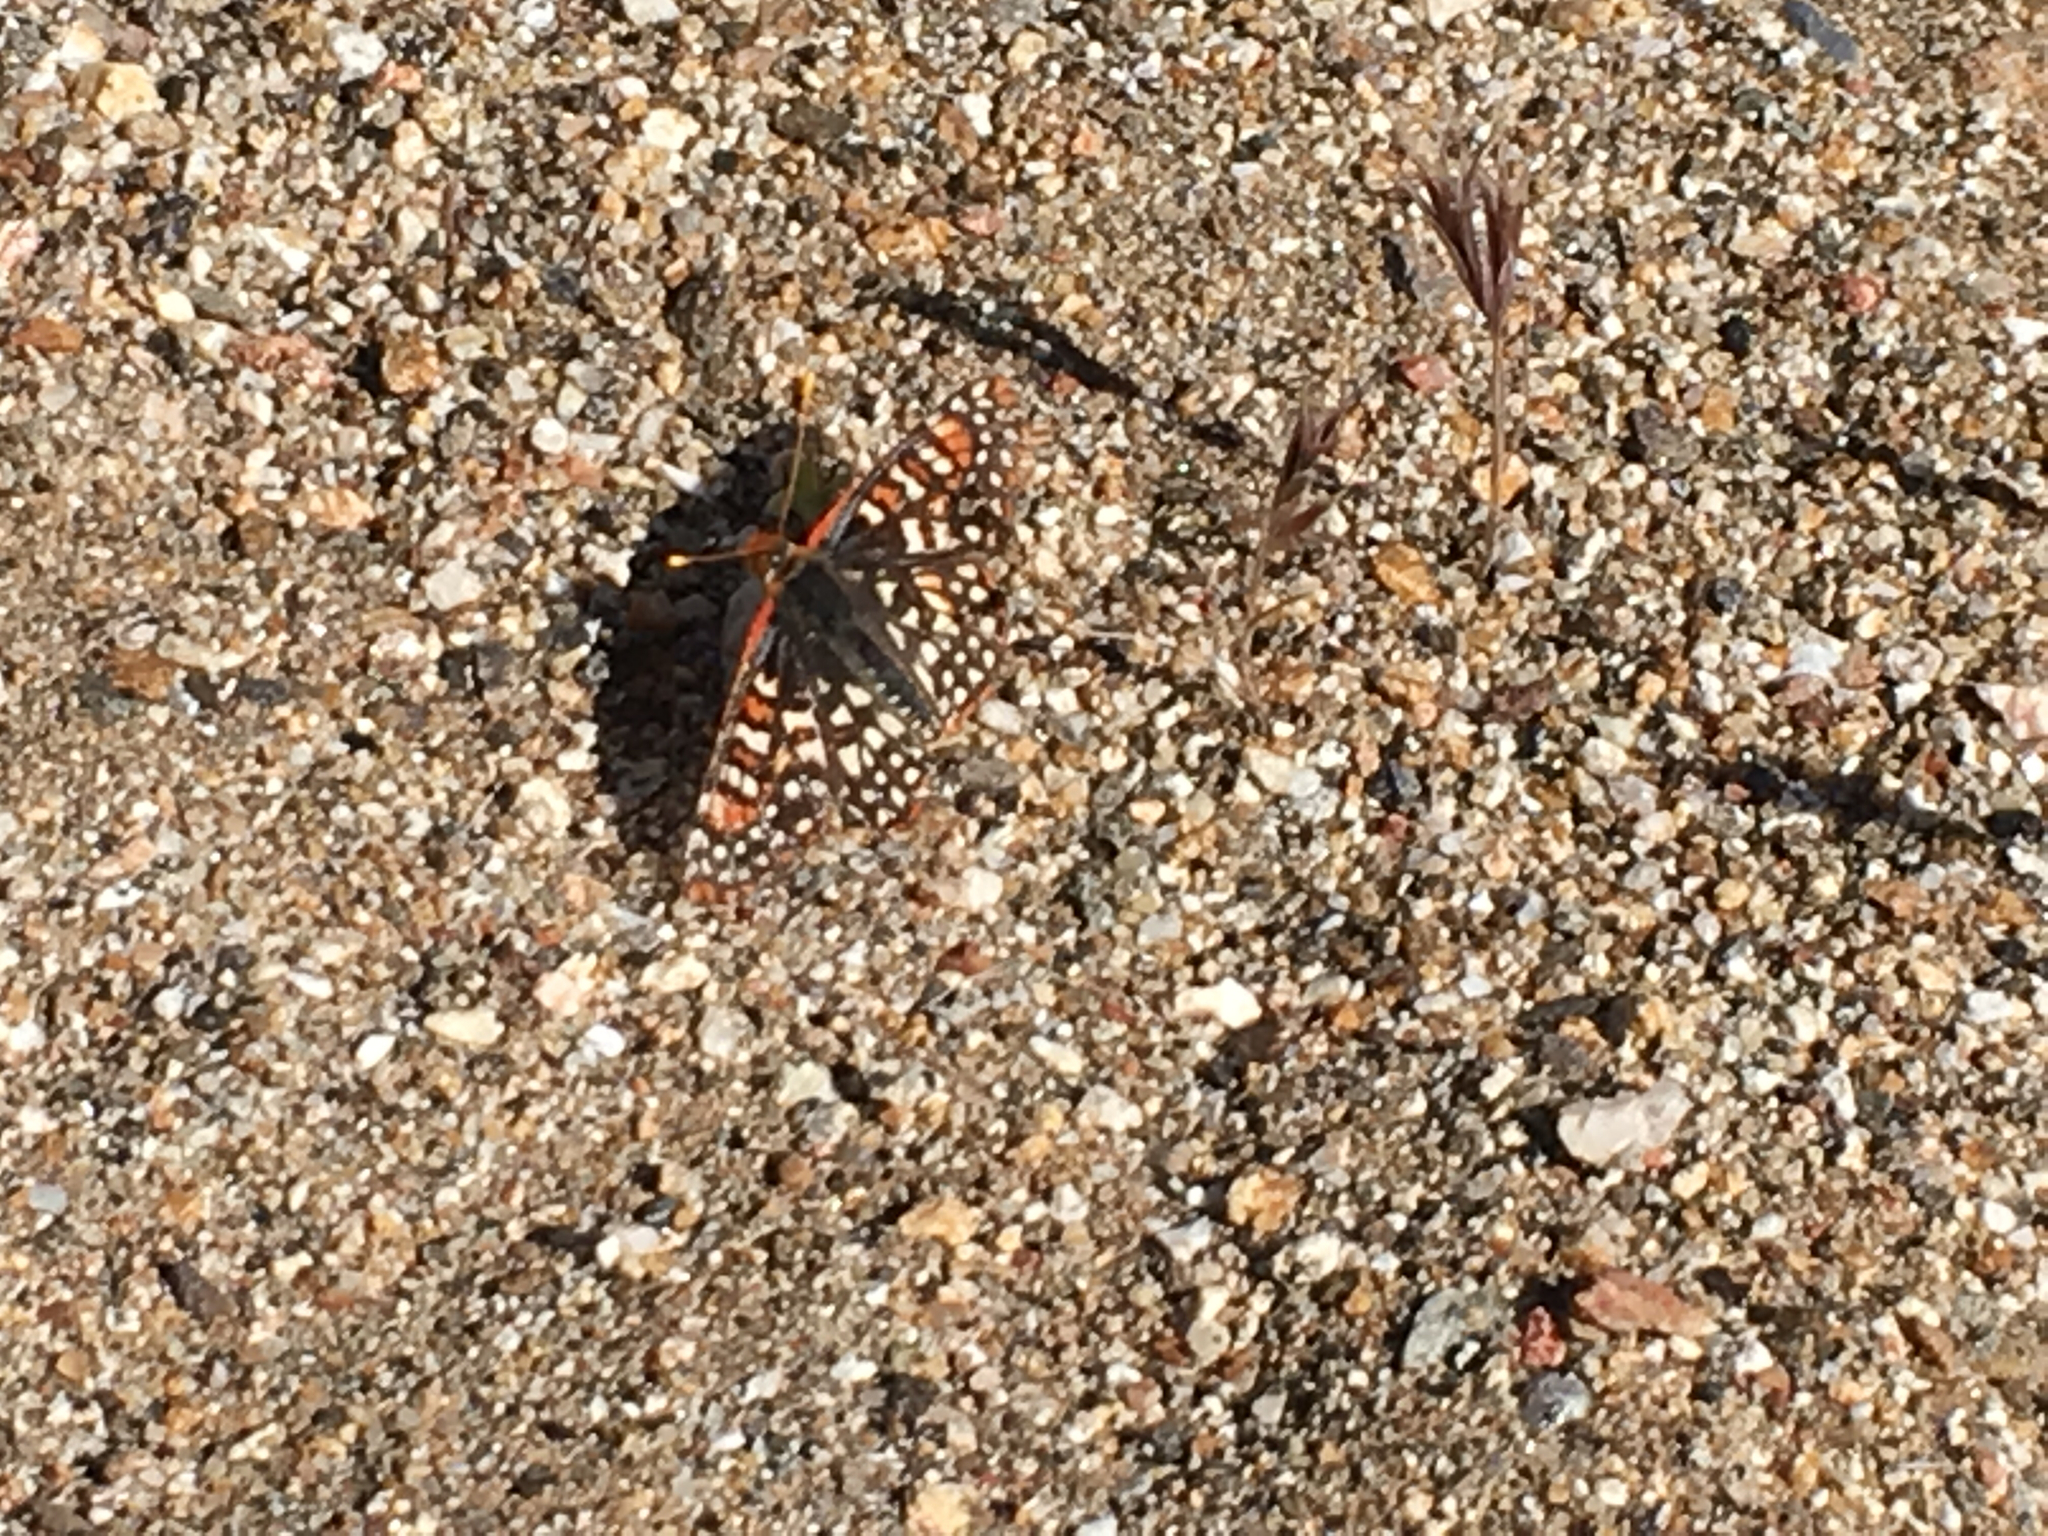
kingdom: Animalia
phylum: Arthropoda
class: Insecta
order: Lepidoptera
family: Nymphalidae
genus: Occidryas
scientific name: Occidryas chalcedona
